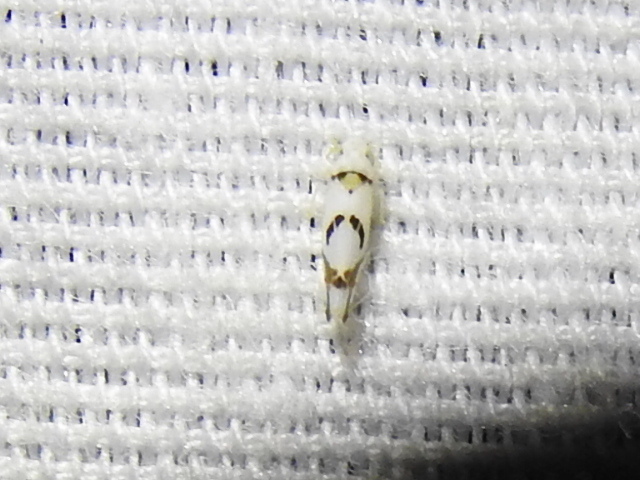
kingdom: Animalia
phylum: Arthropoda
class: Insecta
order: Hemiptera
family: Cicadellidae
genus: Eratoneura
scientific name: Eratoneura lunata
